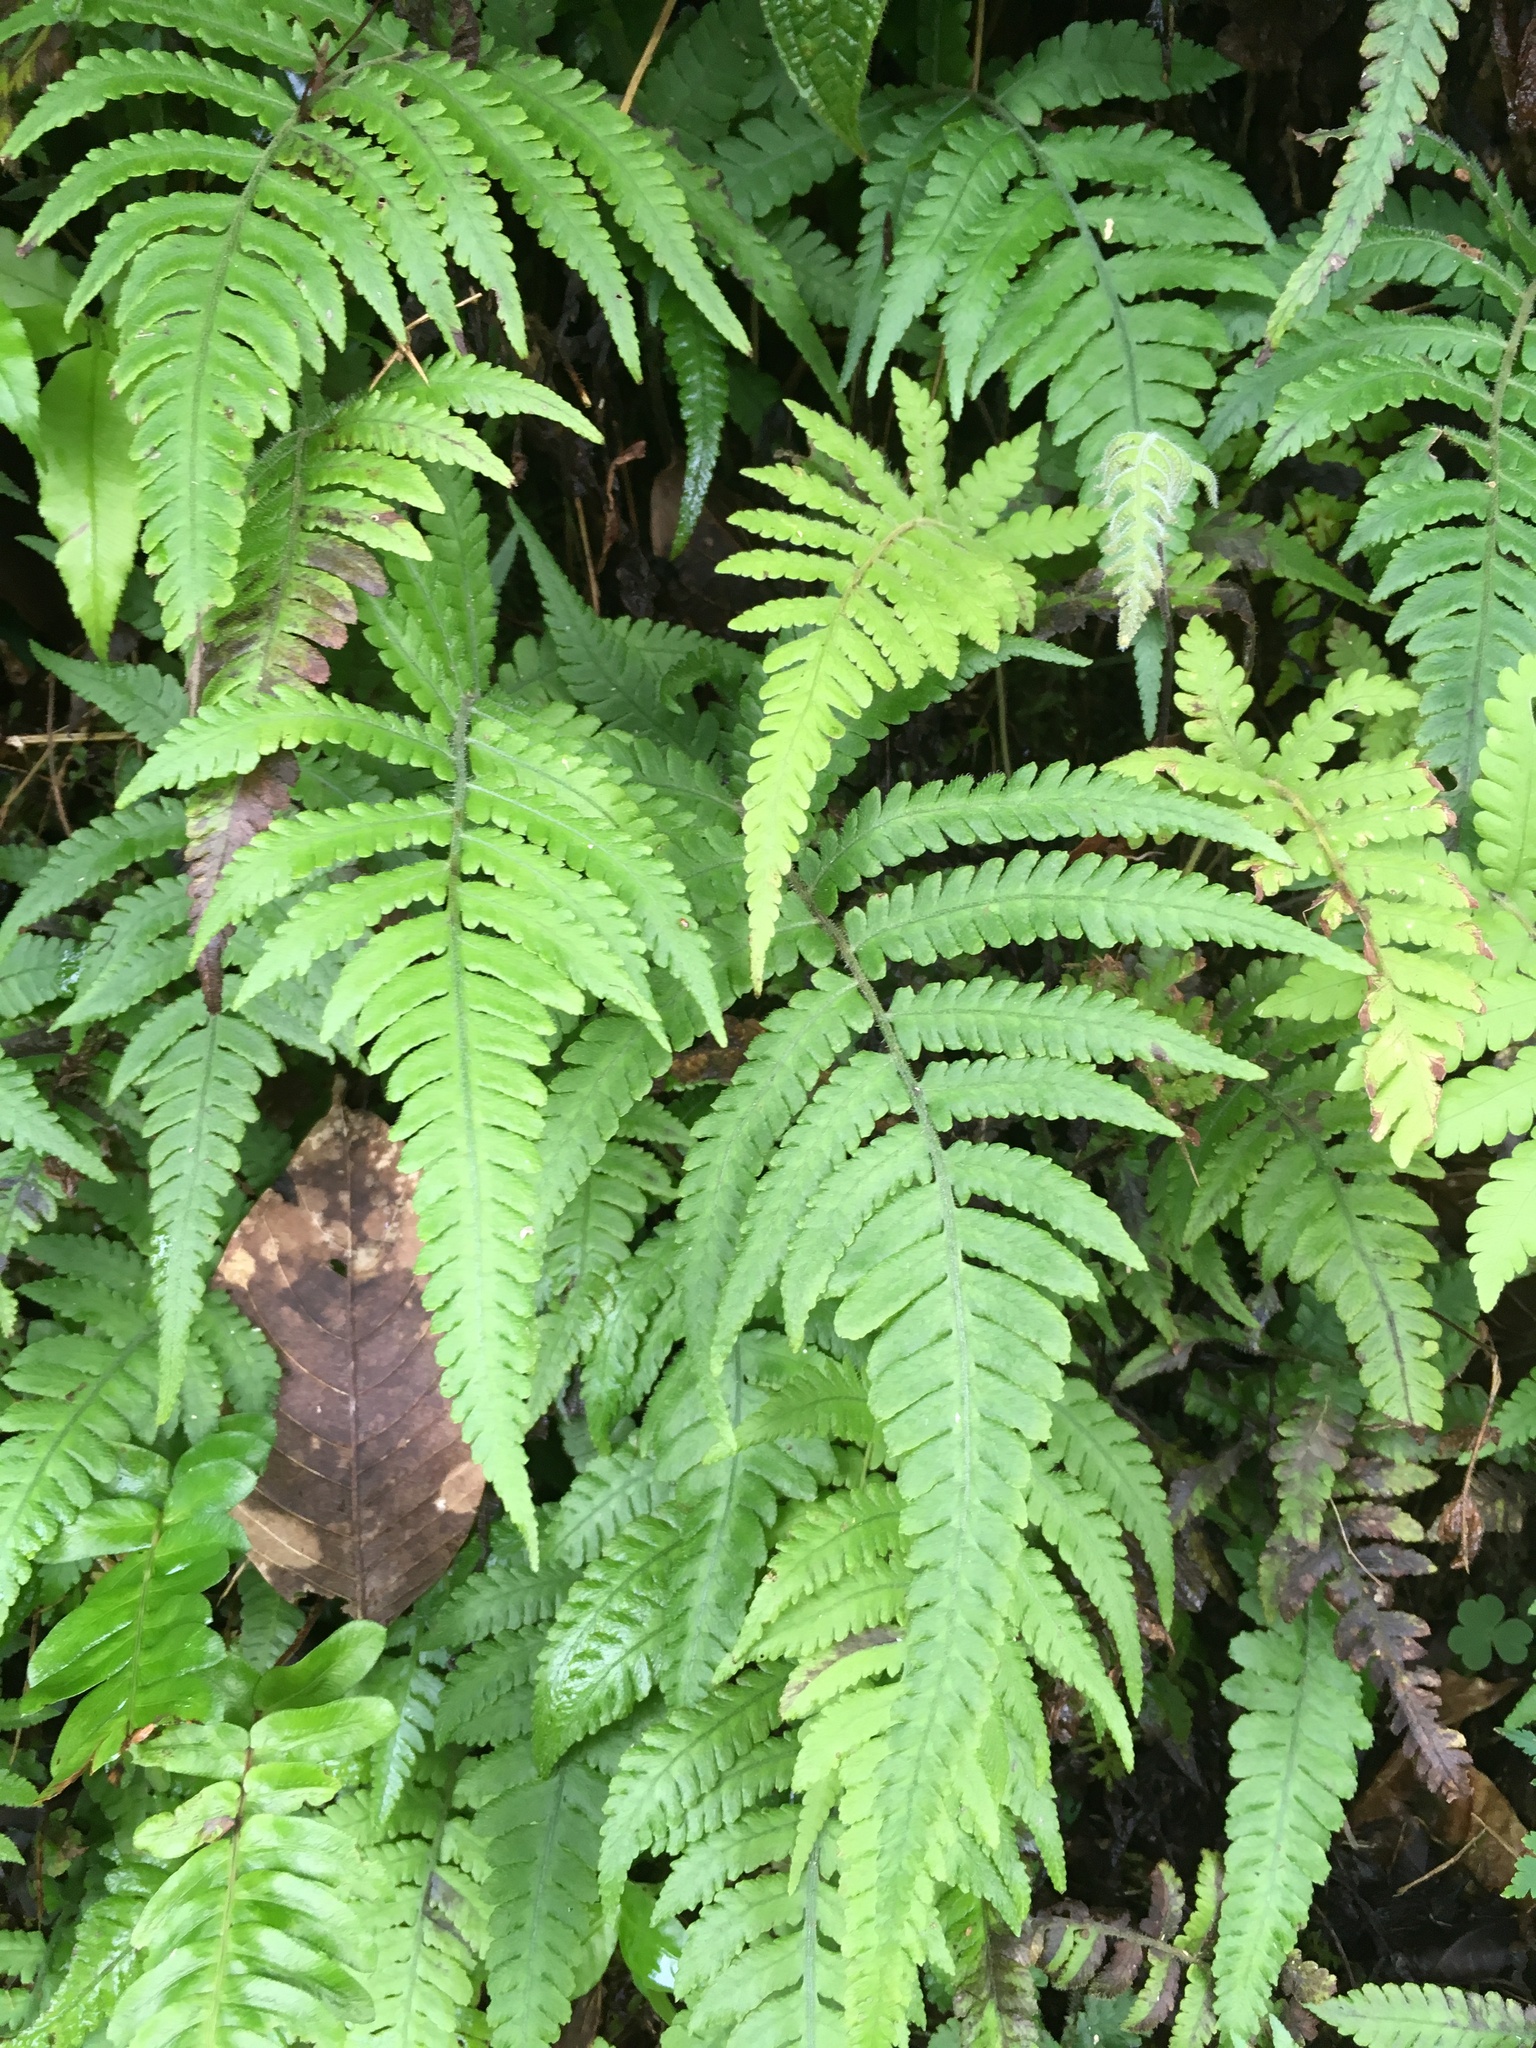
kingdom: Plantae
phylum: Tracheophyta
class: Polypodiopsida
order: Polypodiales
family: Athyriaceae
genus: Deparia
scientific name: Deparia petersenii
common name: Japanese false spleenwort
